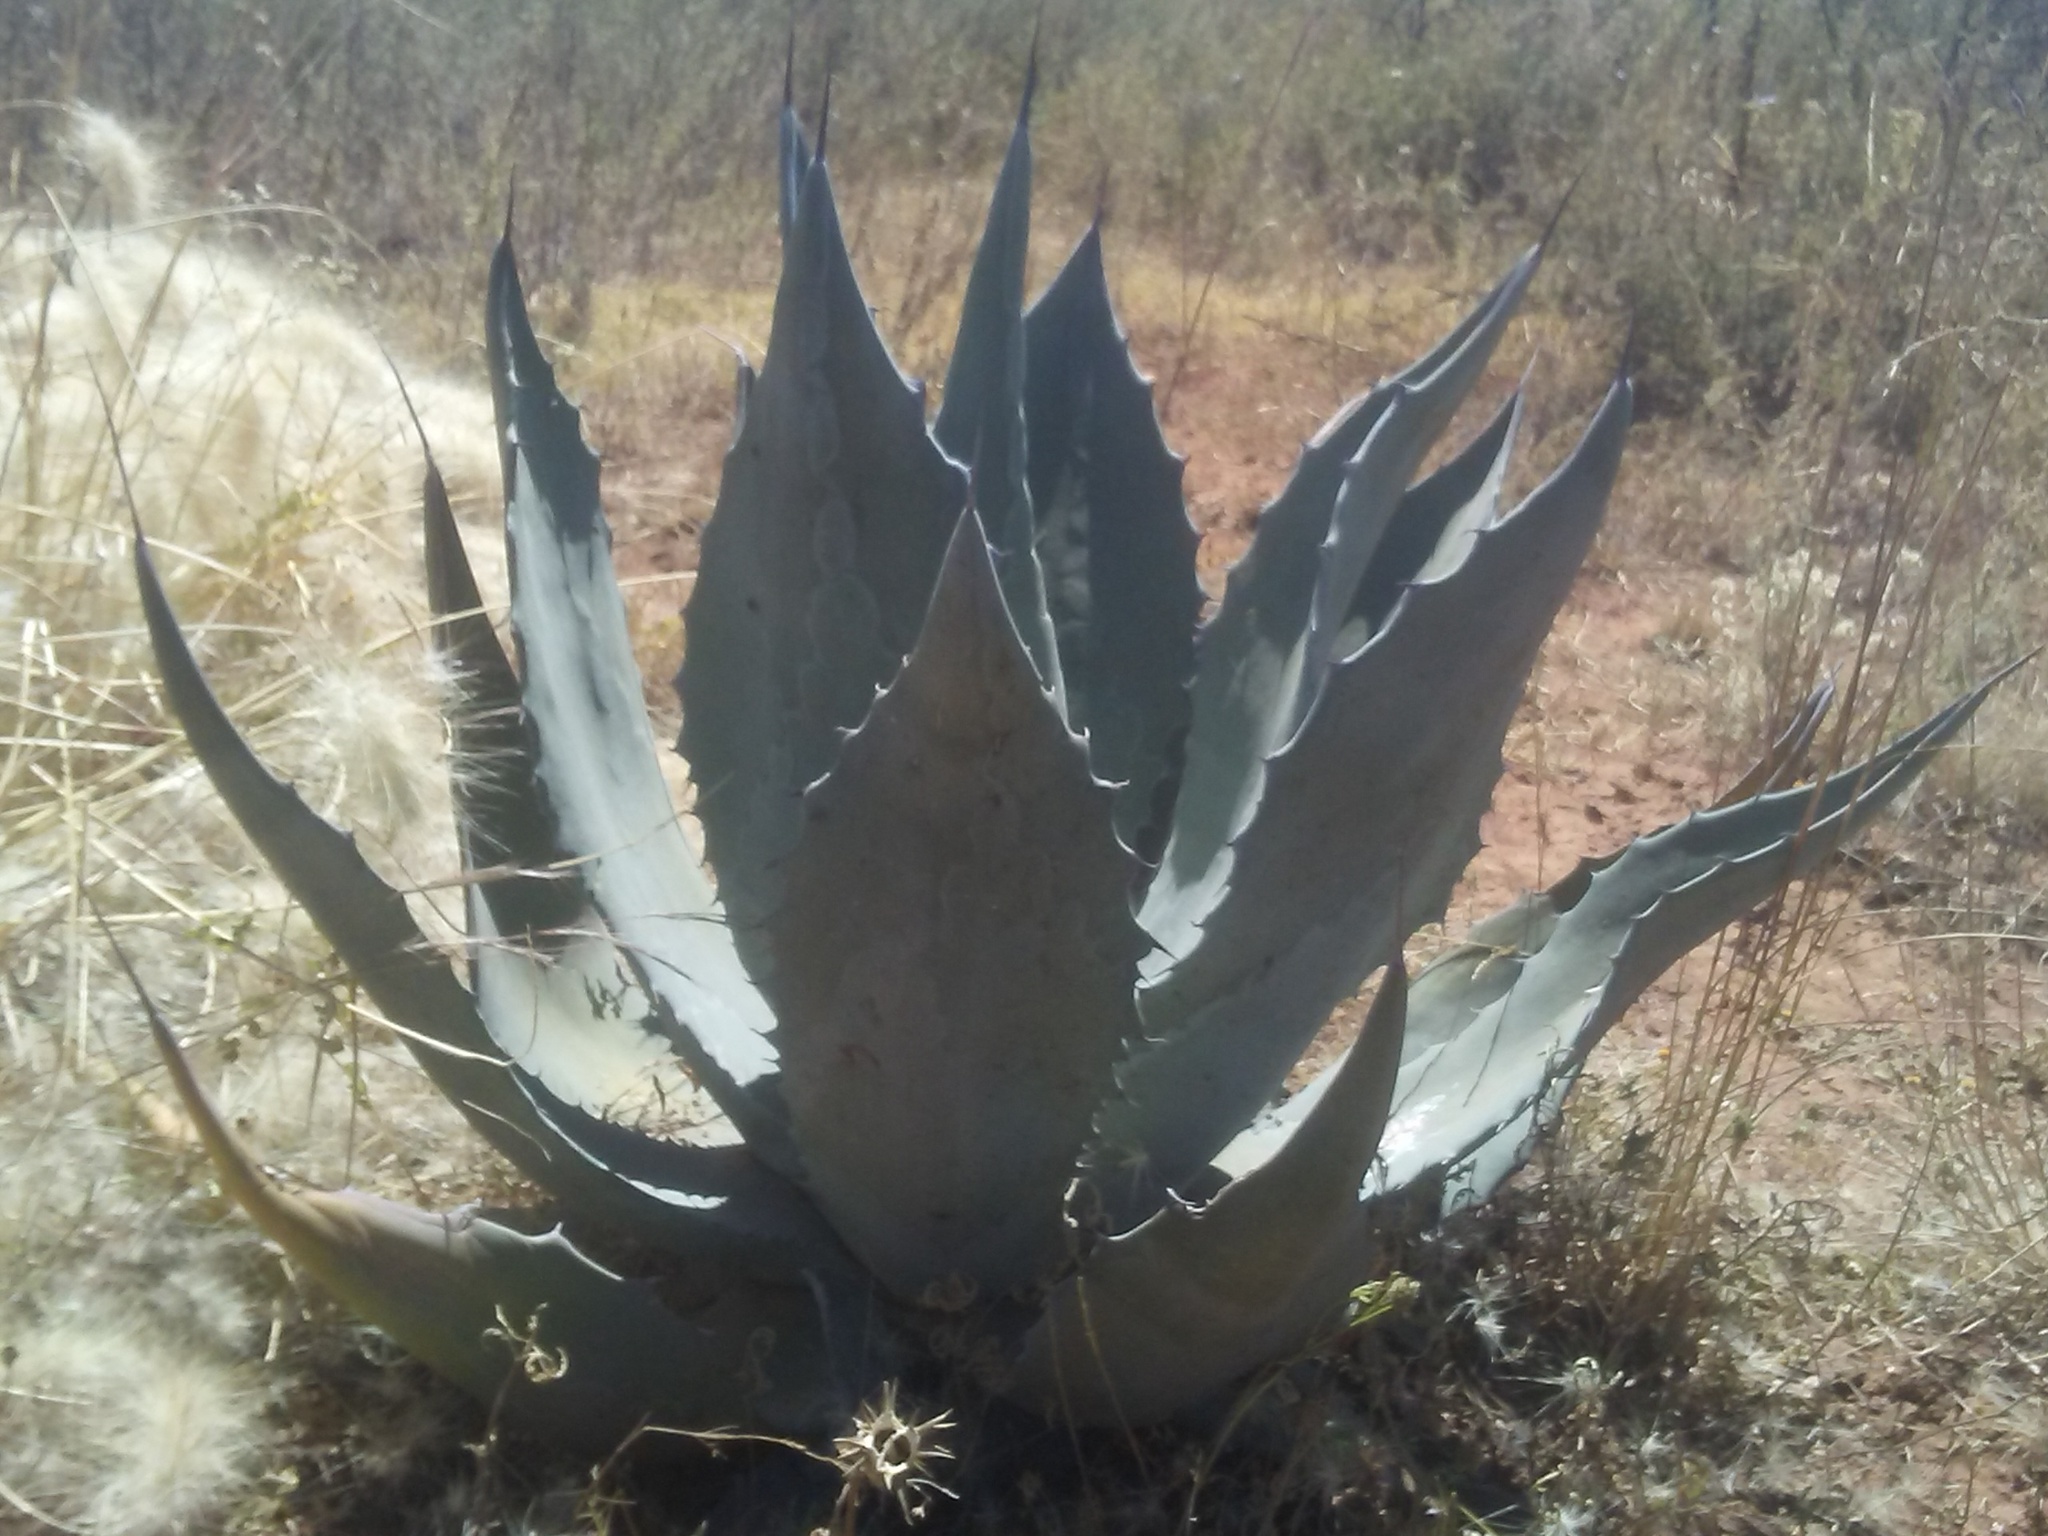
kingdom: Plantae
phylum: Tracheophyta
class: Liliopsida
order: Asparagales
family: Asparagaceae
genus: Agave
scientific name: Agave
